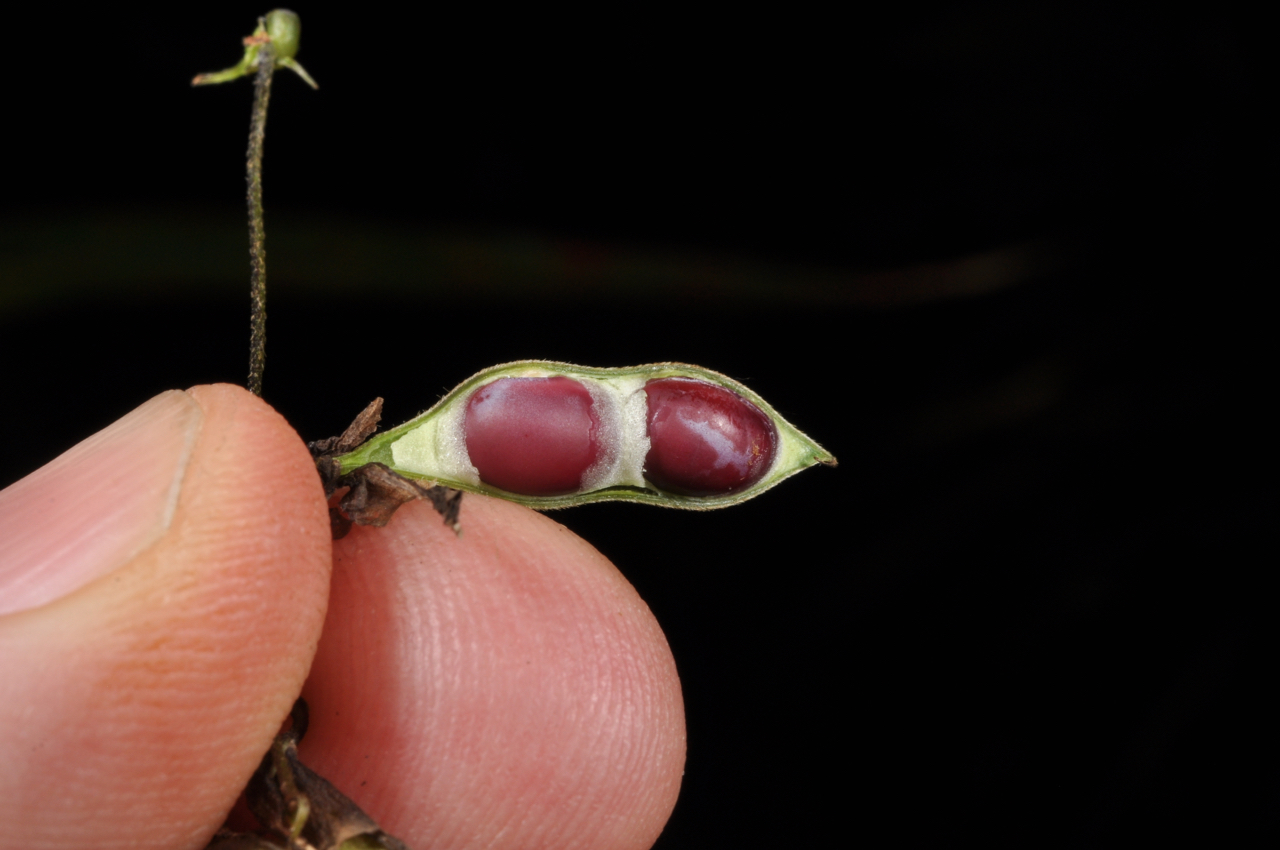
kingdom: Plantae
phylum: Tracheophyta
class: Magnoliopsida
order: Fabales
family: Fabaceae
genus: Dumasia
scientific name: Dumasia villosa
